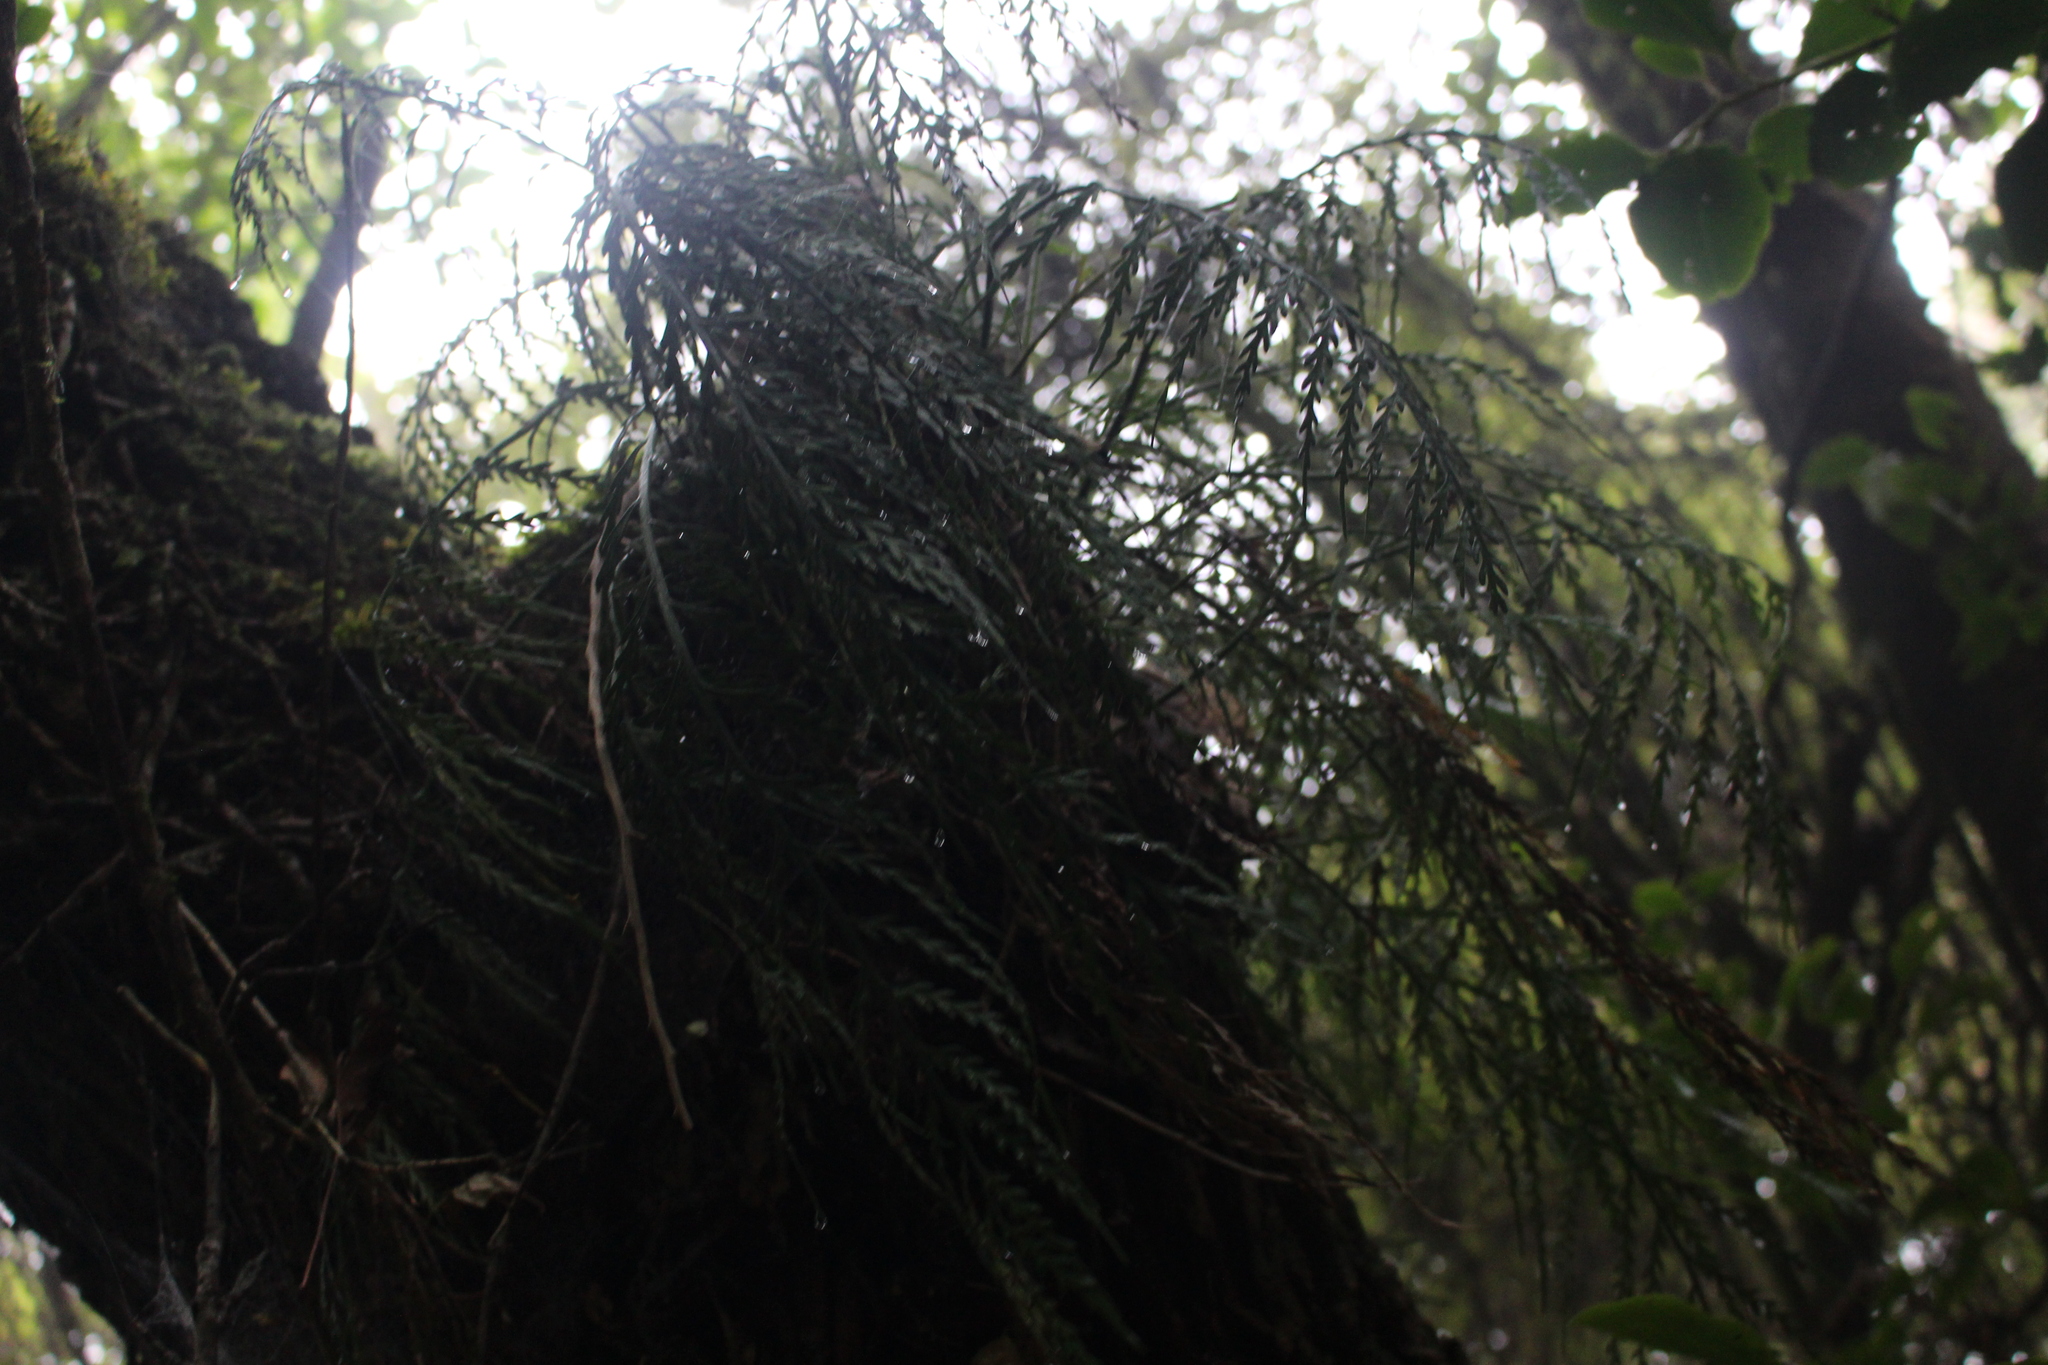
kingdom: Plantae
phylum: Tracheophyta
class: Polypodiopsida
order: Polypodiales
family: Aspleniaceae
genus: Asplenium
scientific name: Asplenium flaccidum
